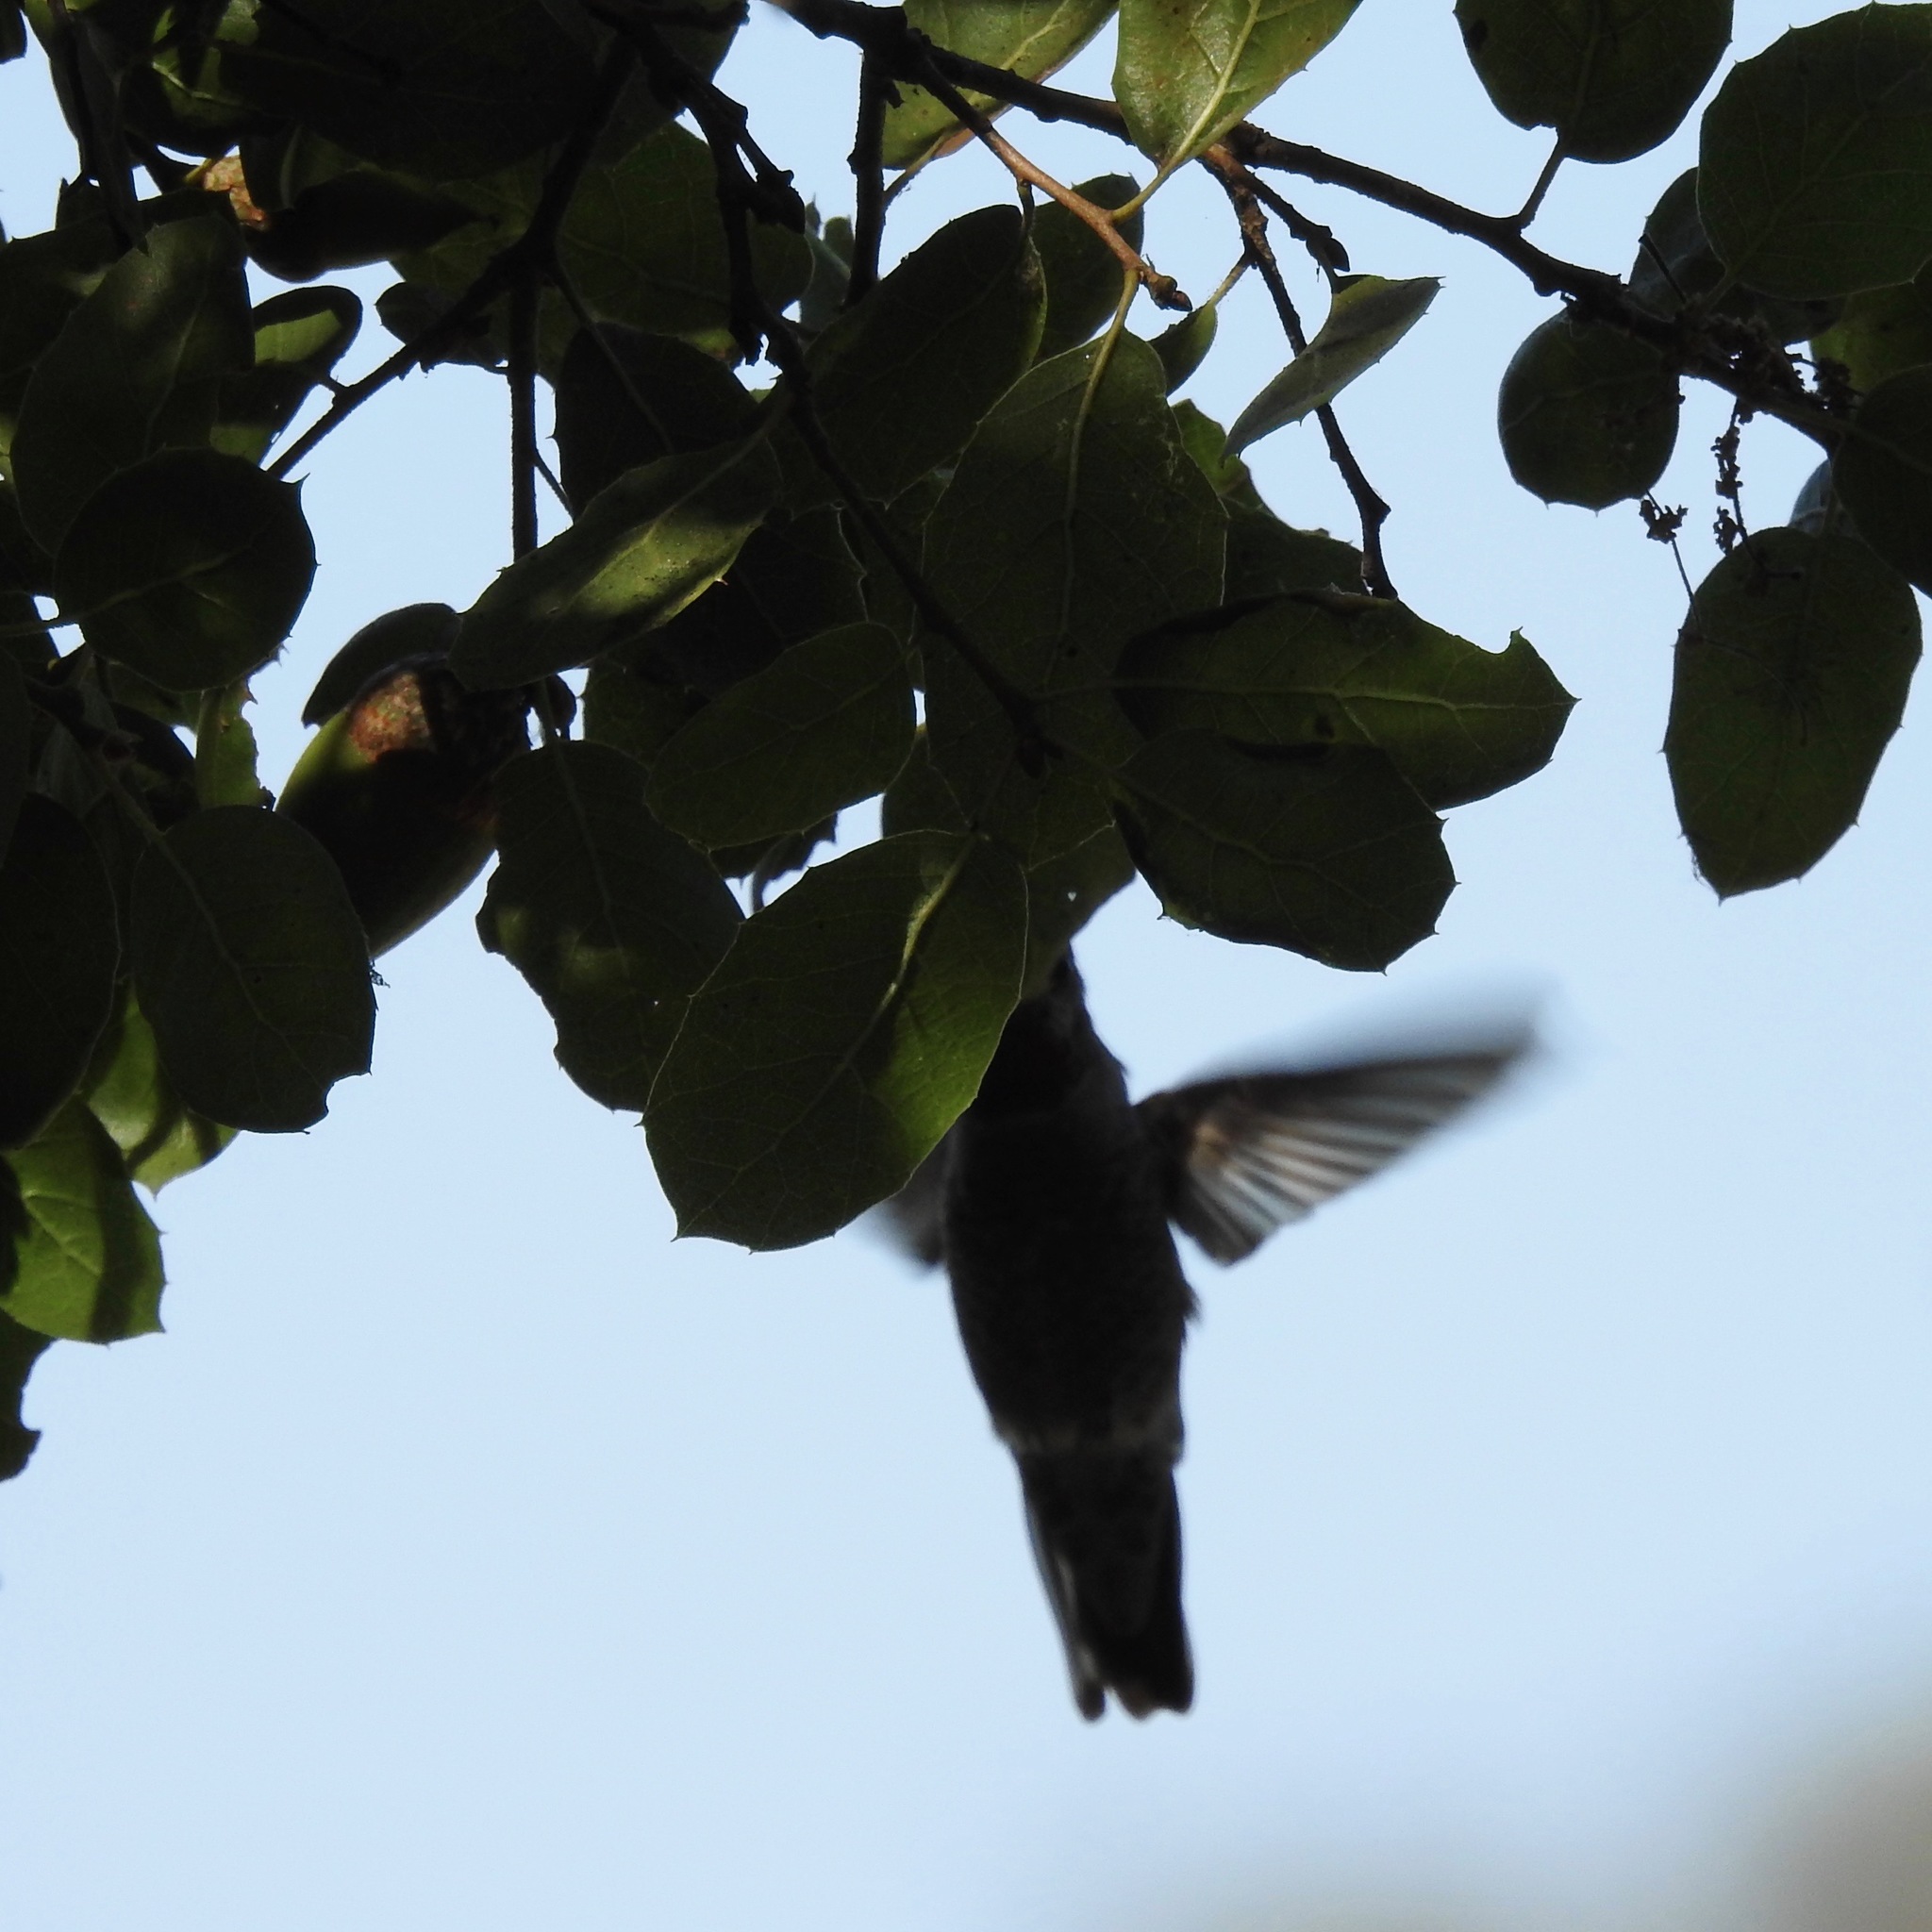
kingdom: Animalia
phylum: Chordata
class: Aves
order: Apodiformes
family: Trochilidae
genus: Calypte
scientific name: Calypte anna
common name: Anna's hummingbird
